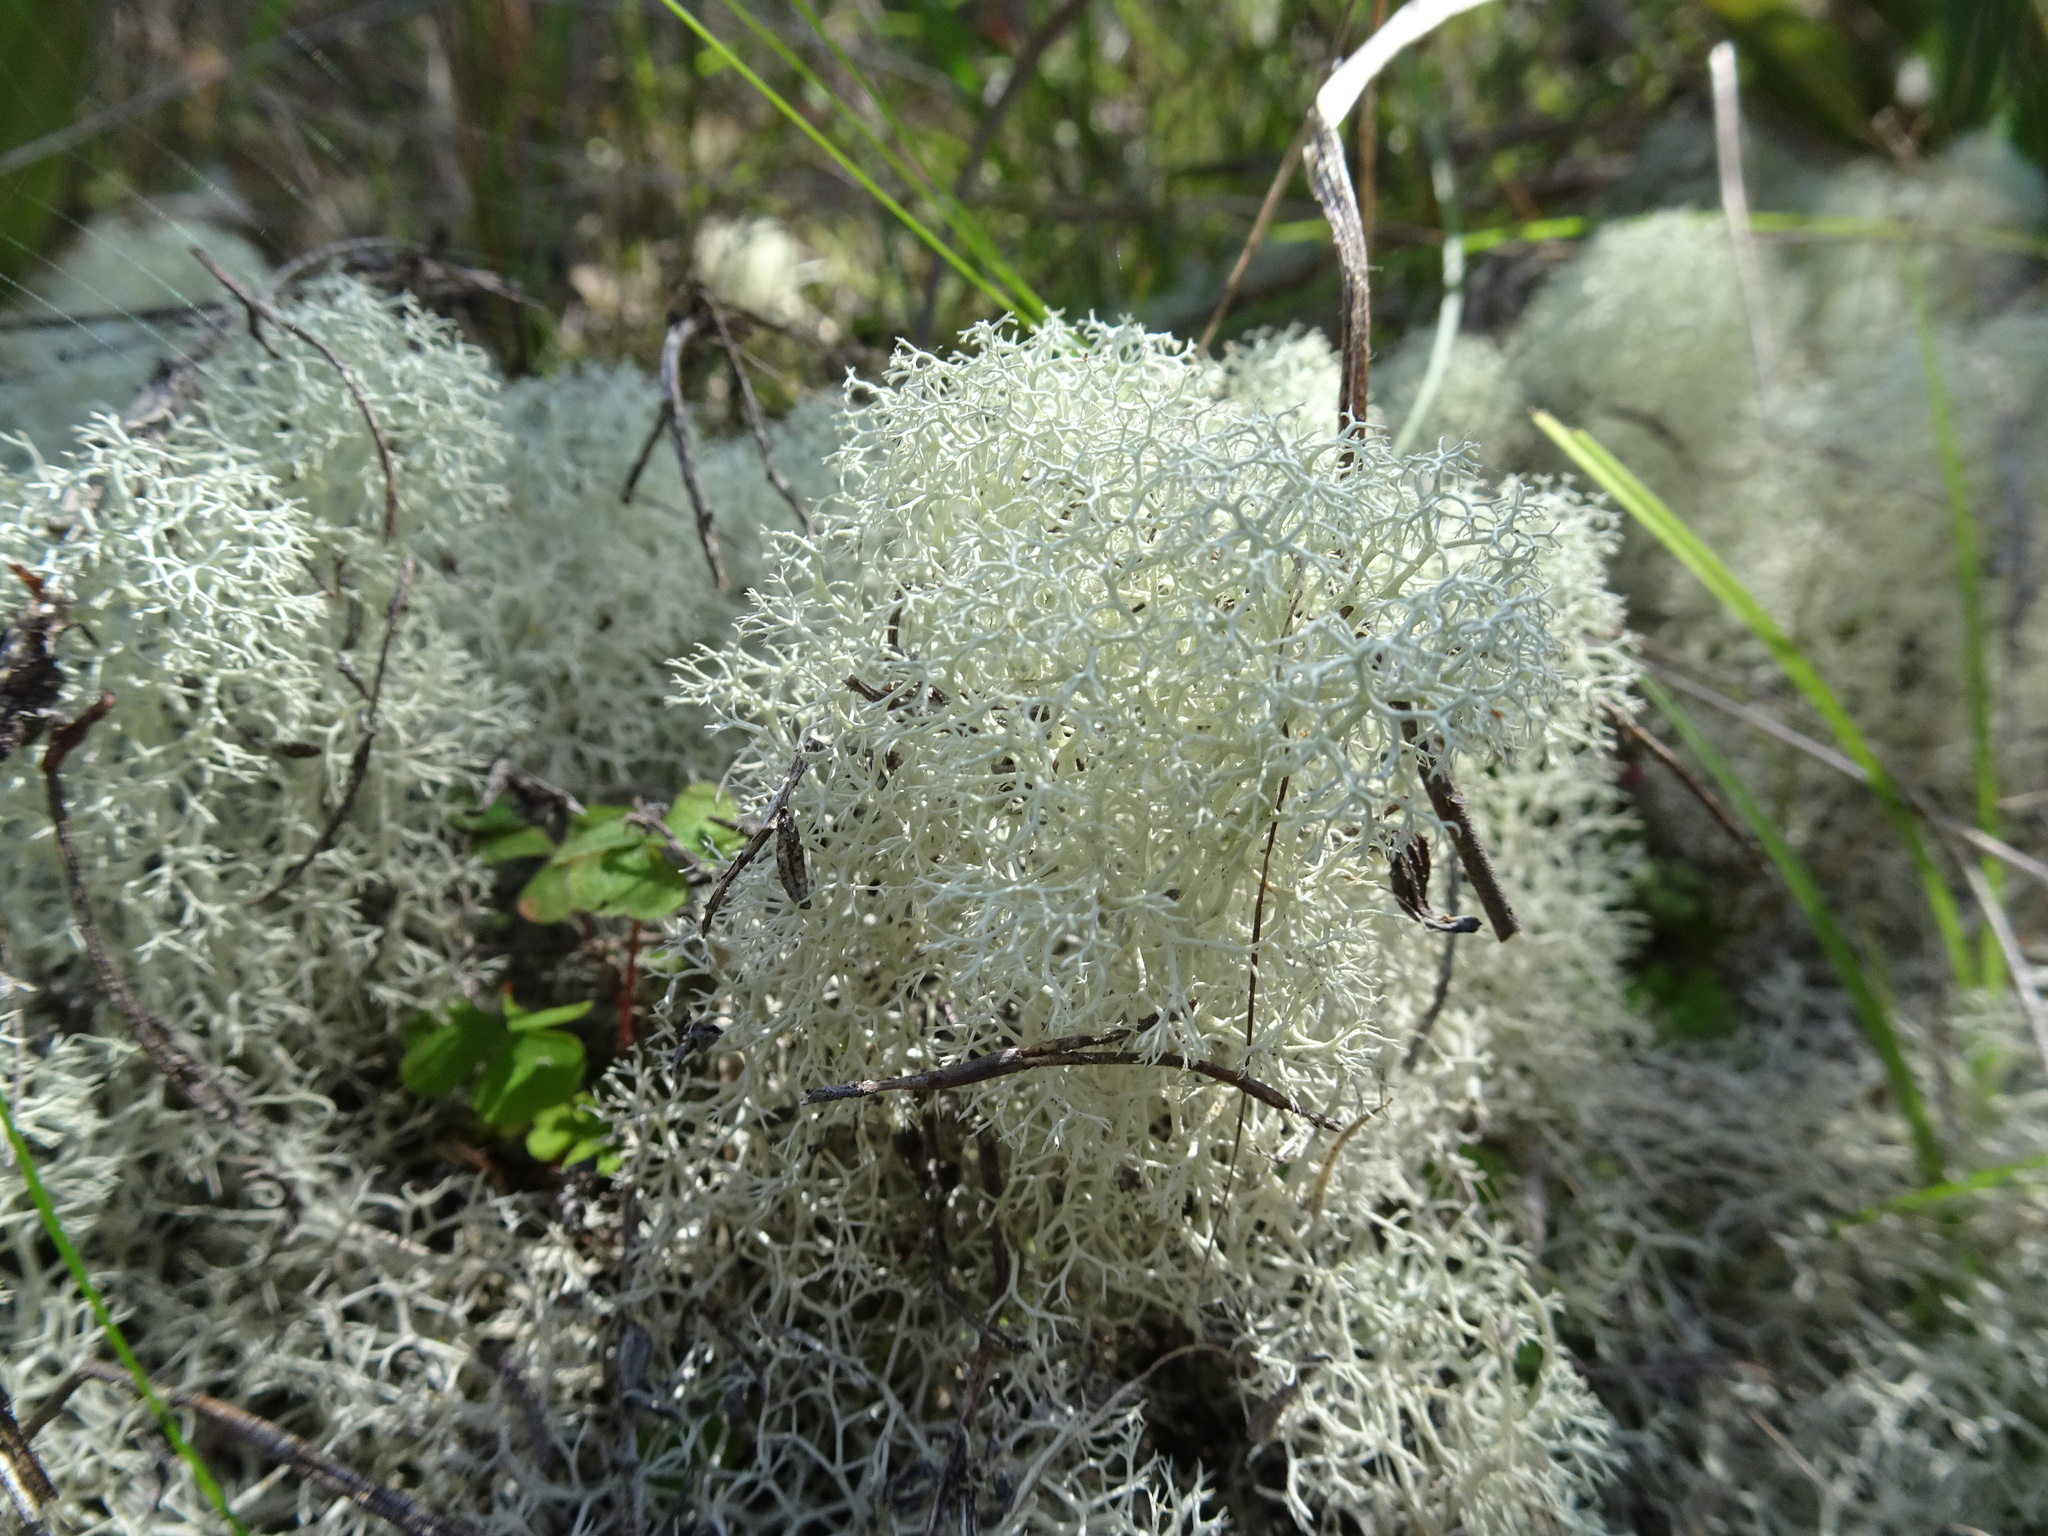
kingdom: Fungi
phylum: Ascomycota
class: Lecanoromycetes
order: Lecanorales
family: Cladoniaceae
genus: Cladonia
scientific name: Cladonia confusa
